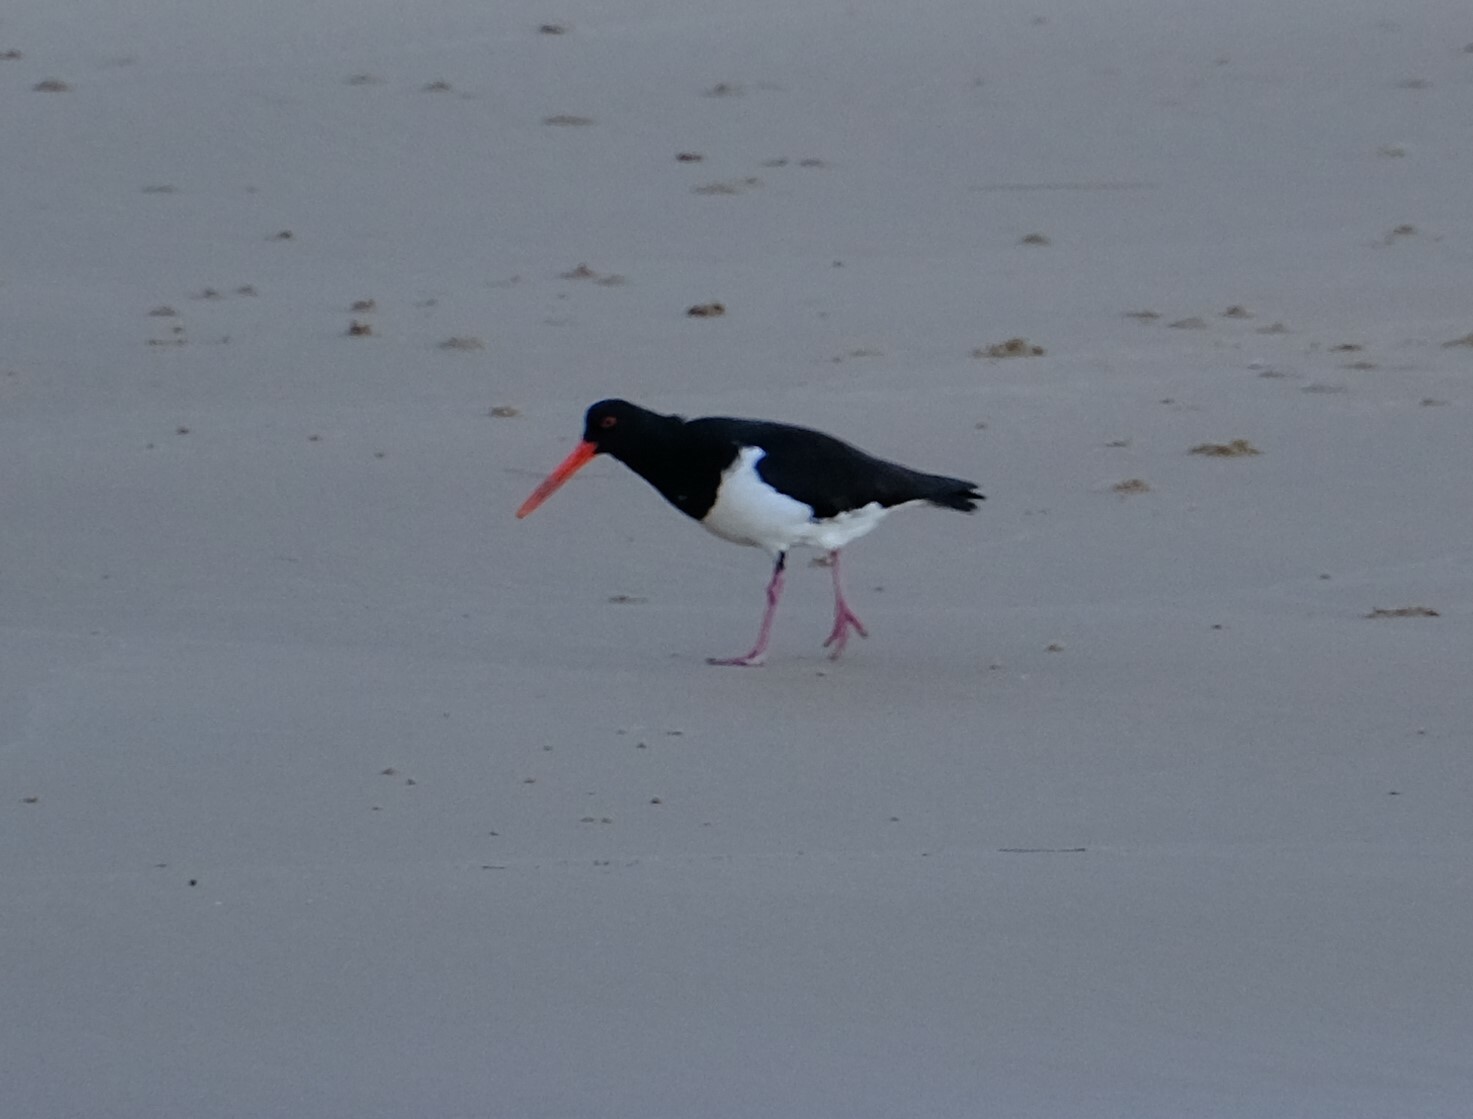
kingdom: Animalia
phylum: Chordata
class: Aves
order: Charadriiformes
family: Haematopodidae
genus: Haematopus
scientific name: Haematopus longirostris
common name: Pied oystercatcher
